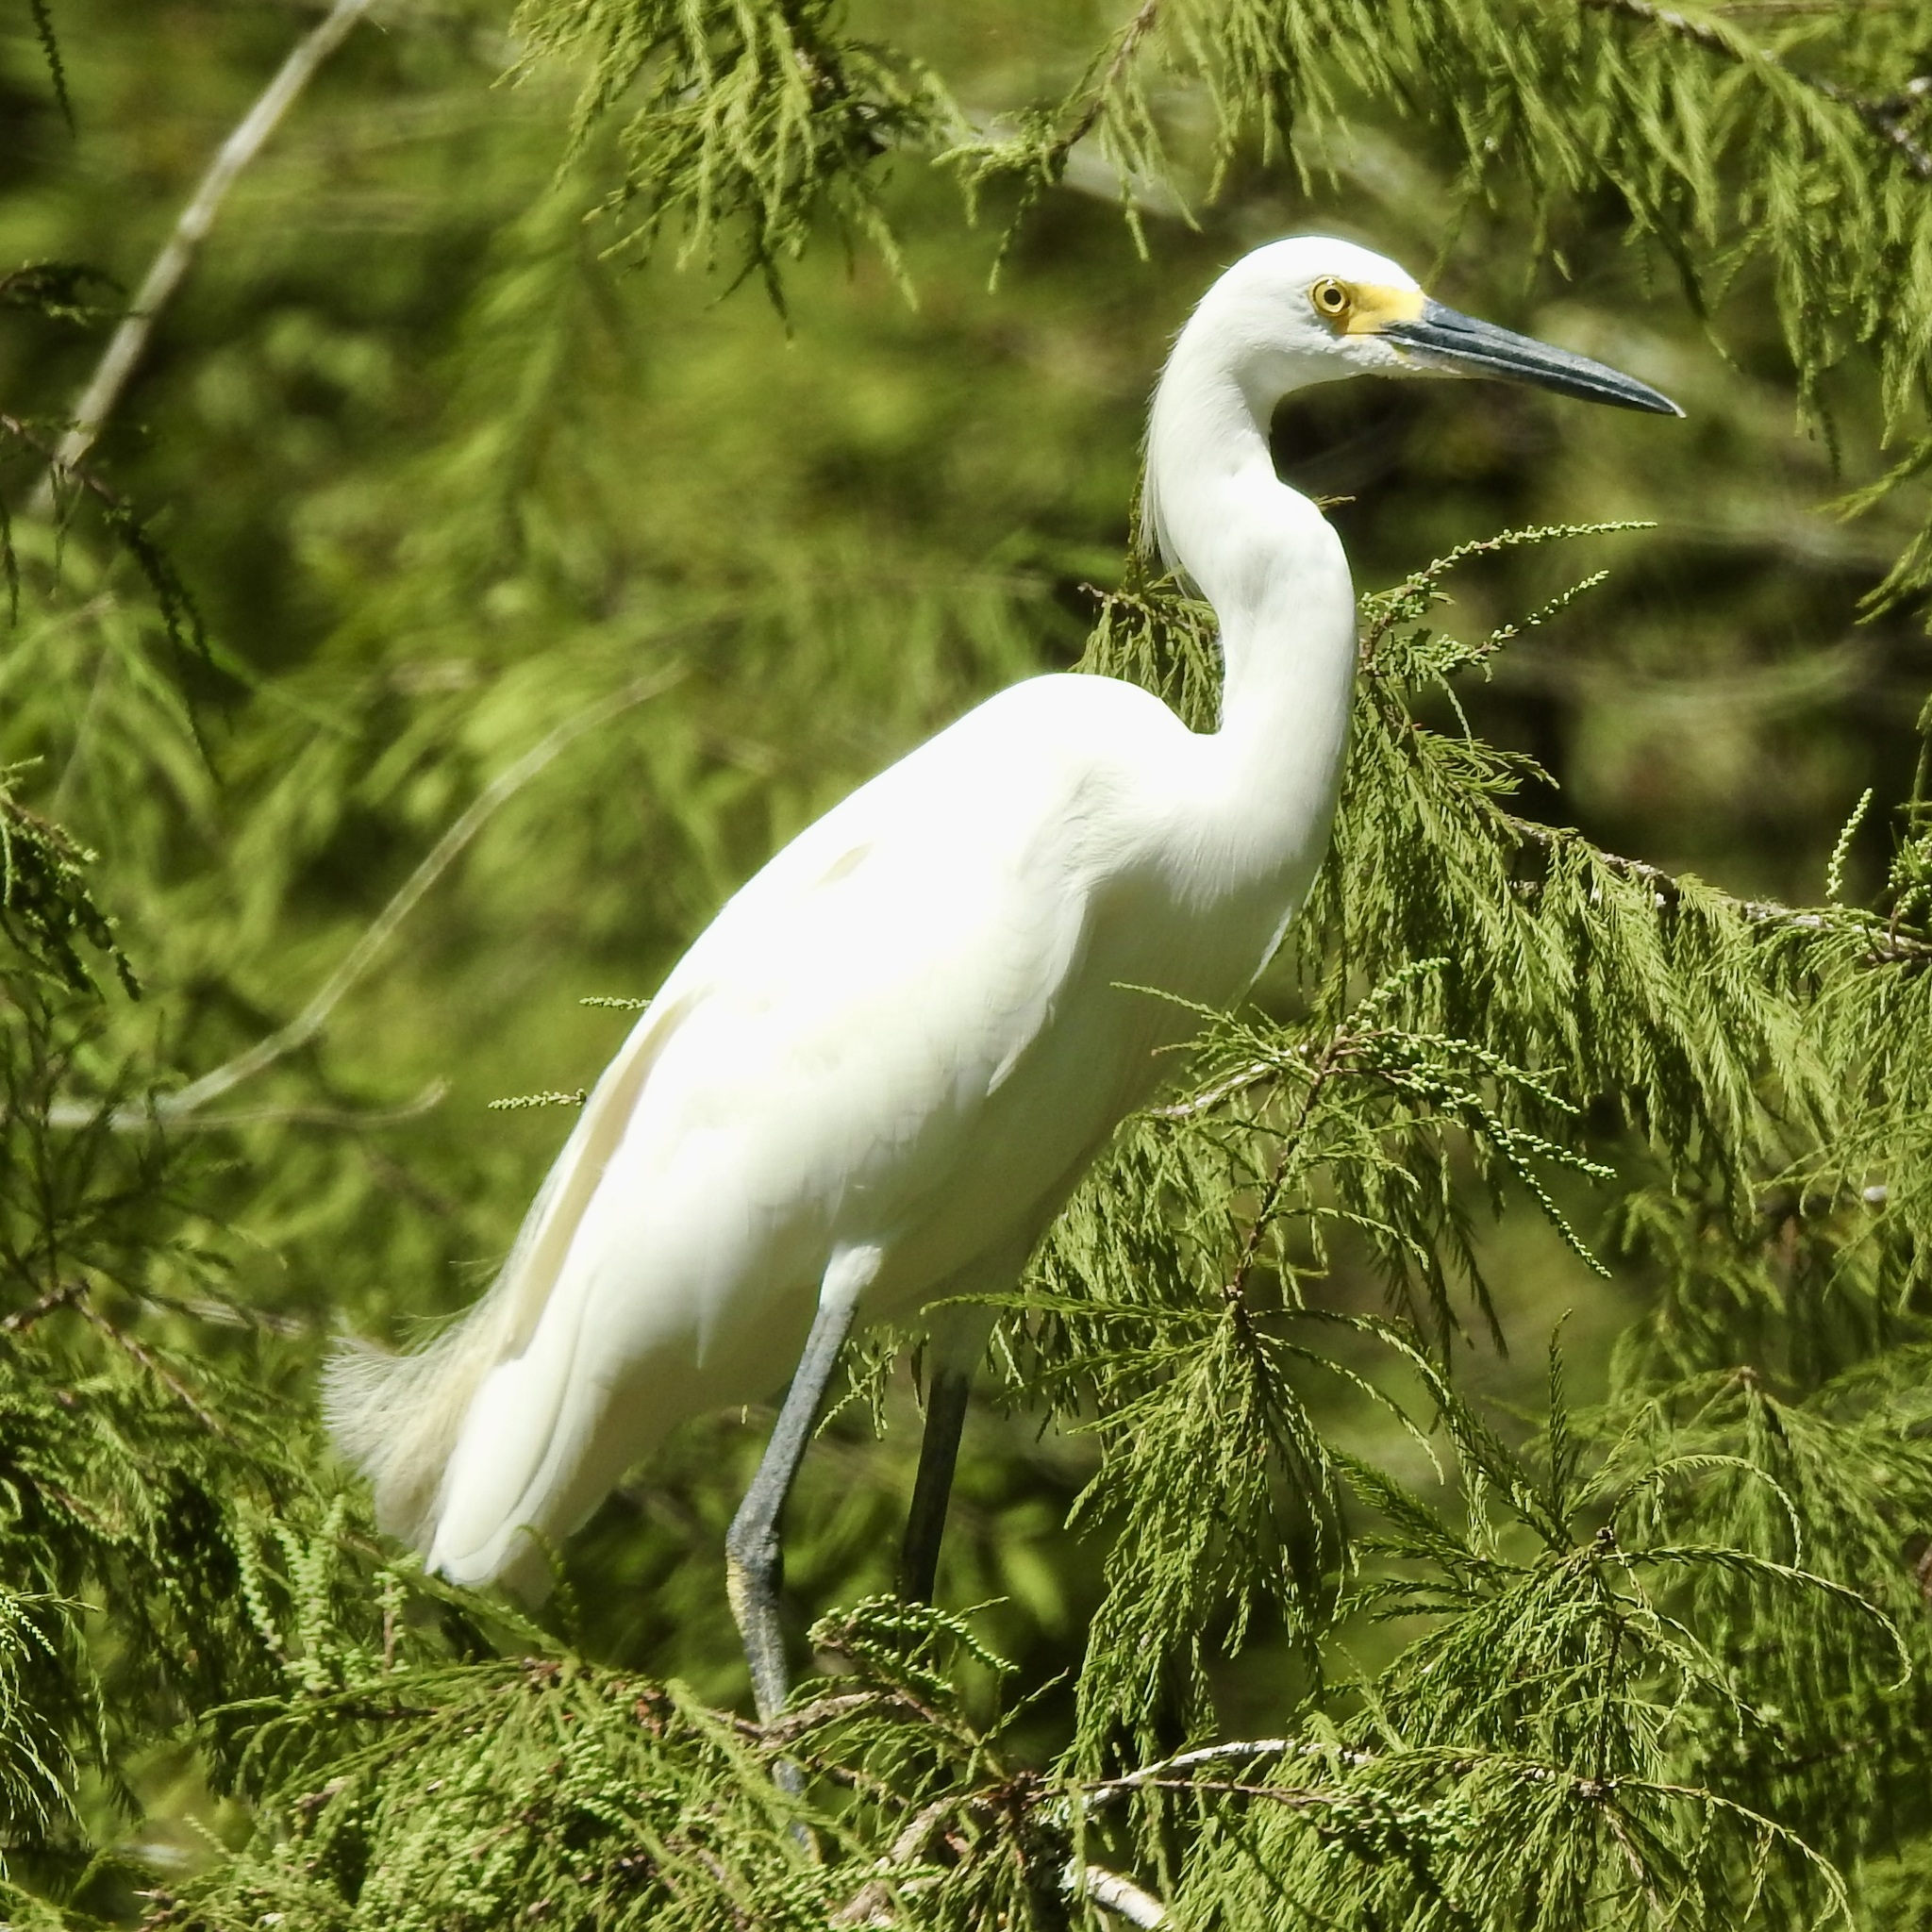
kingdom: Animalia
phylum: Chordata
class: Aves
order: Pelecaniformes
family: Ardeidae
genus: Egretta
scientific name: Egretta thula
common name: Snowy egret
